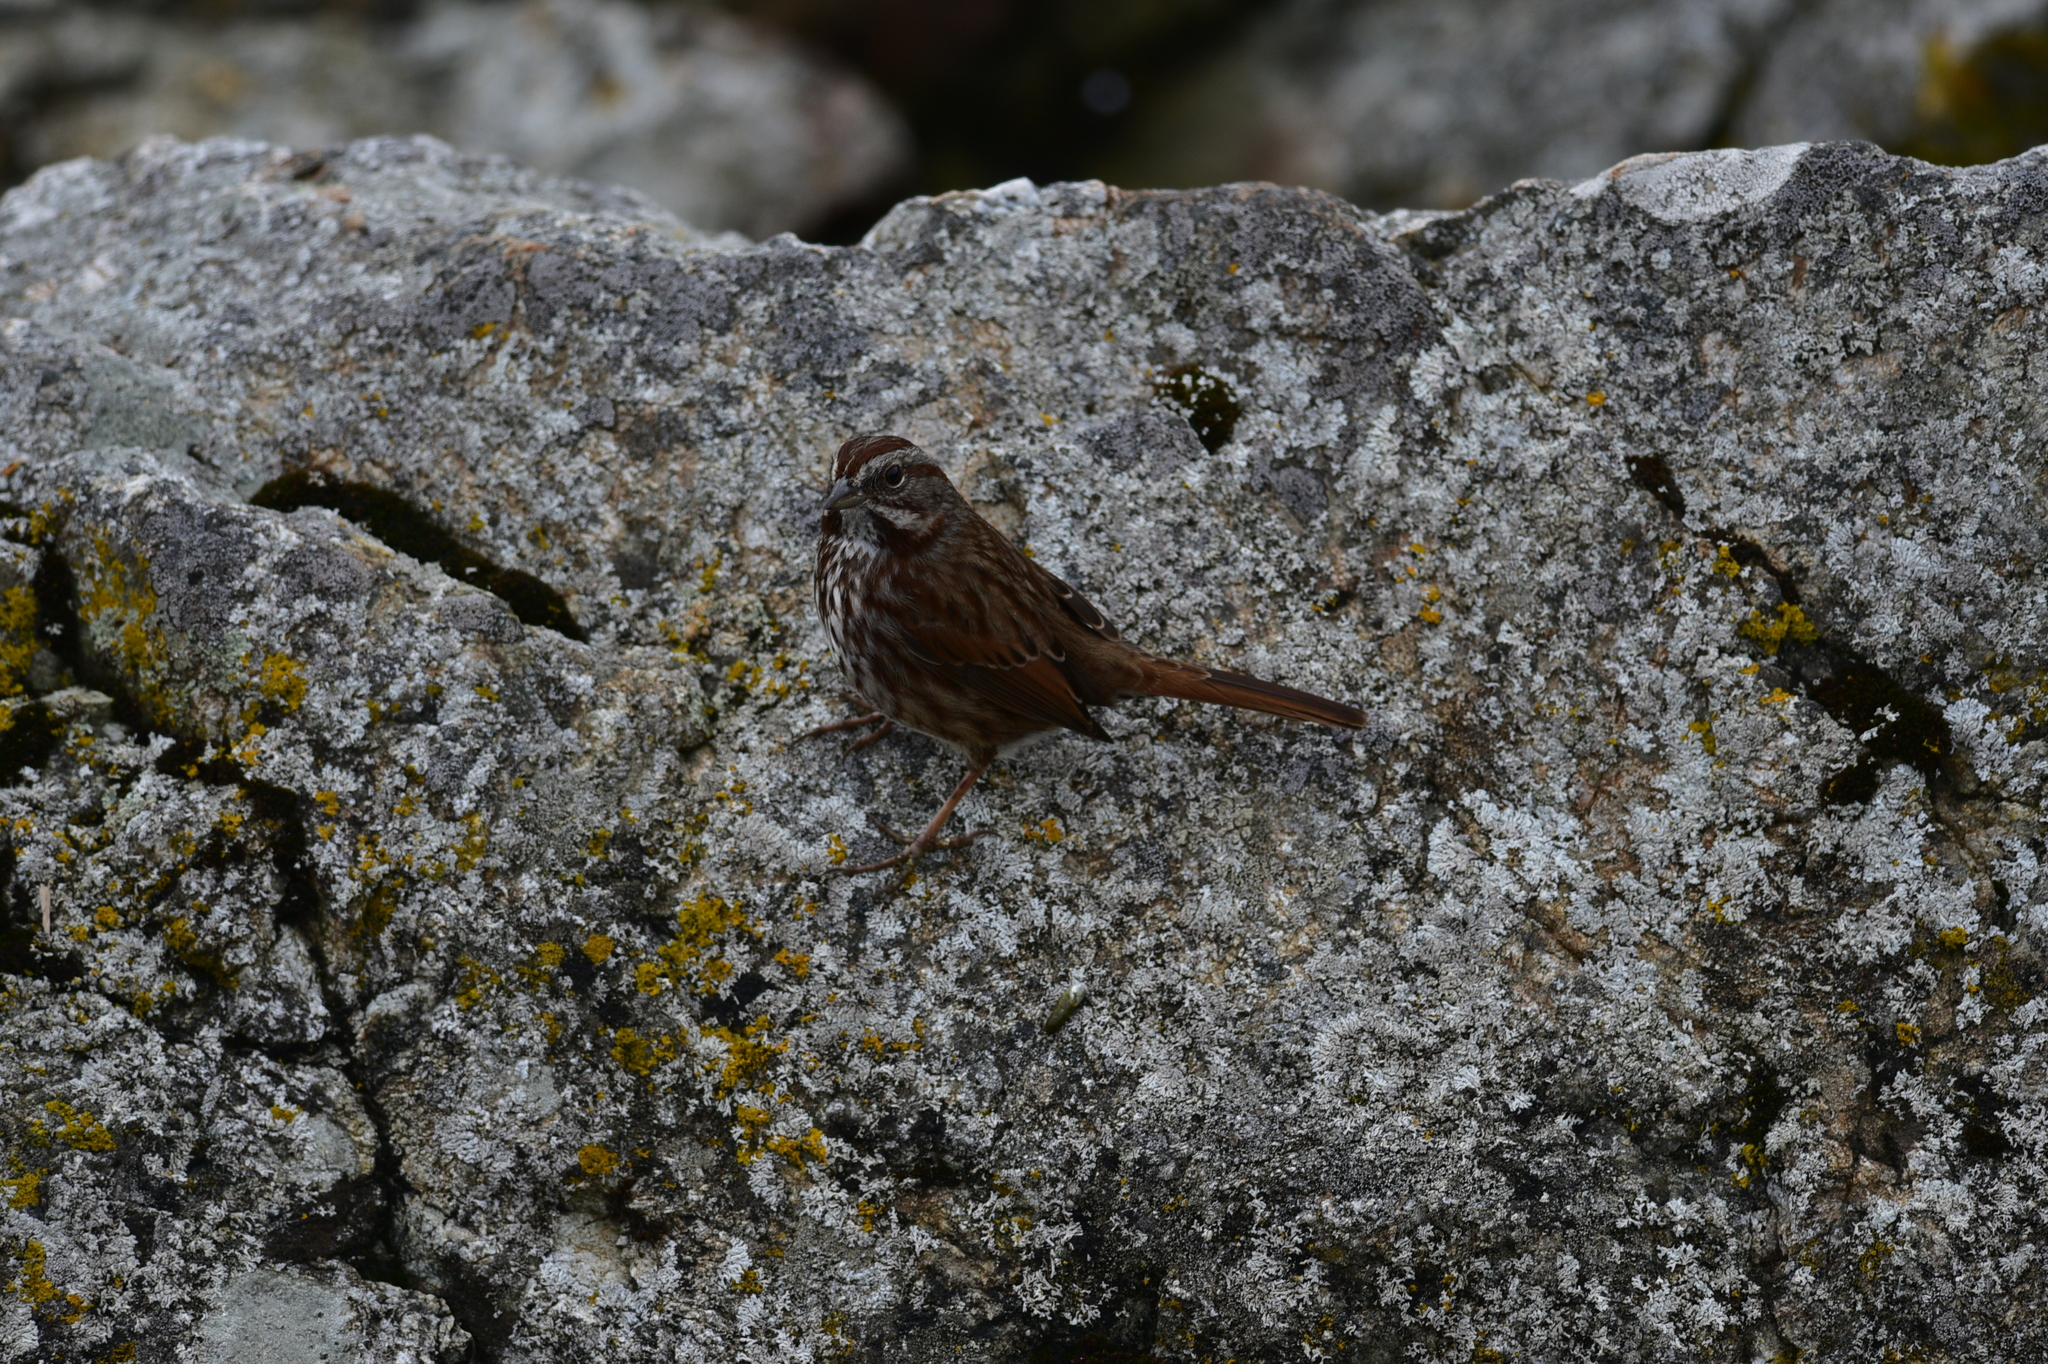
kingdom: Animalia
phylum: Chordata
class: Aves
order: Passeriformes
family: Passerellidae
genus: Melospiza
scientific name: Melospiza melodia
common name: Song sparrow
